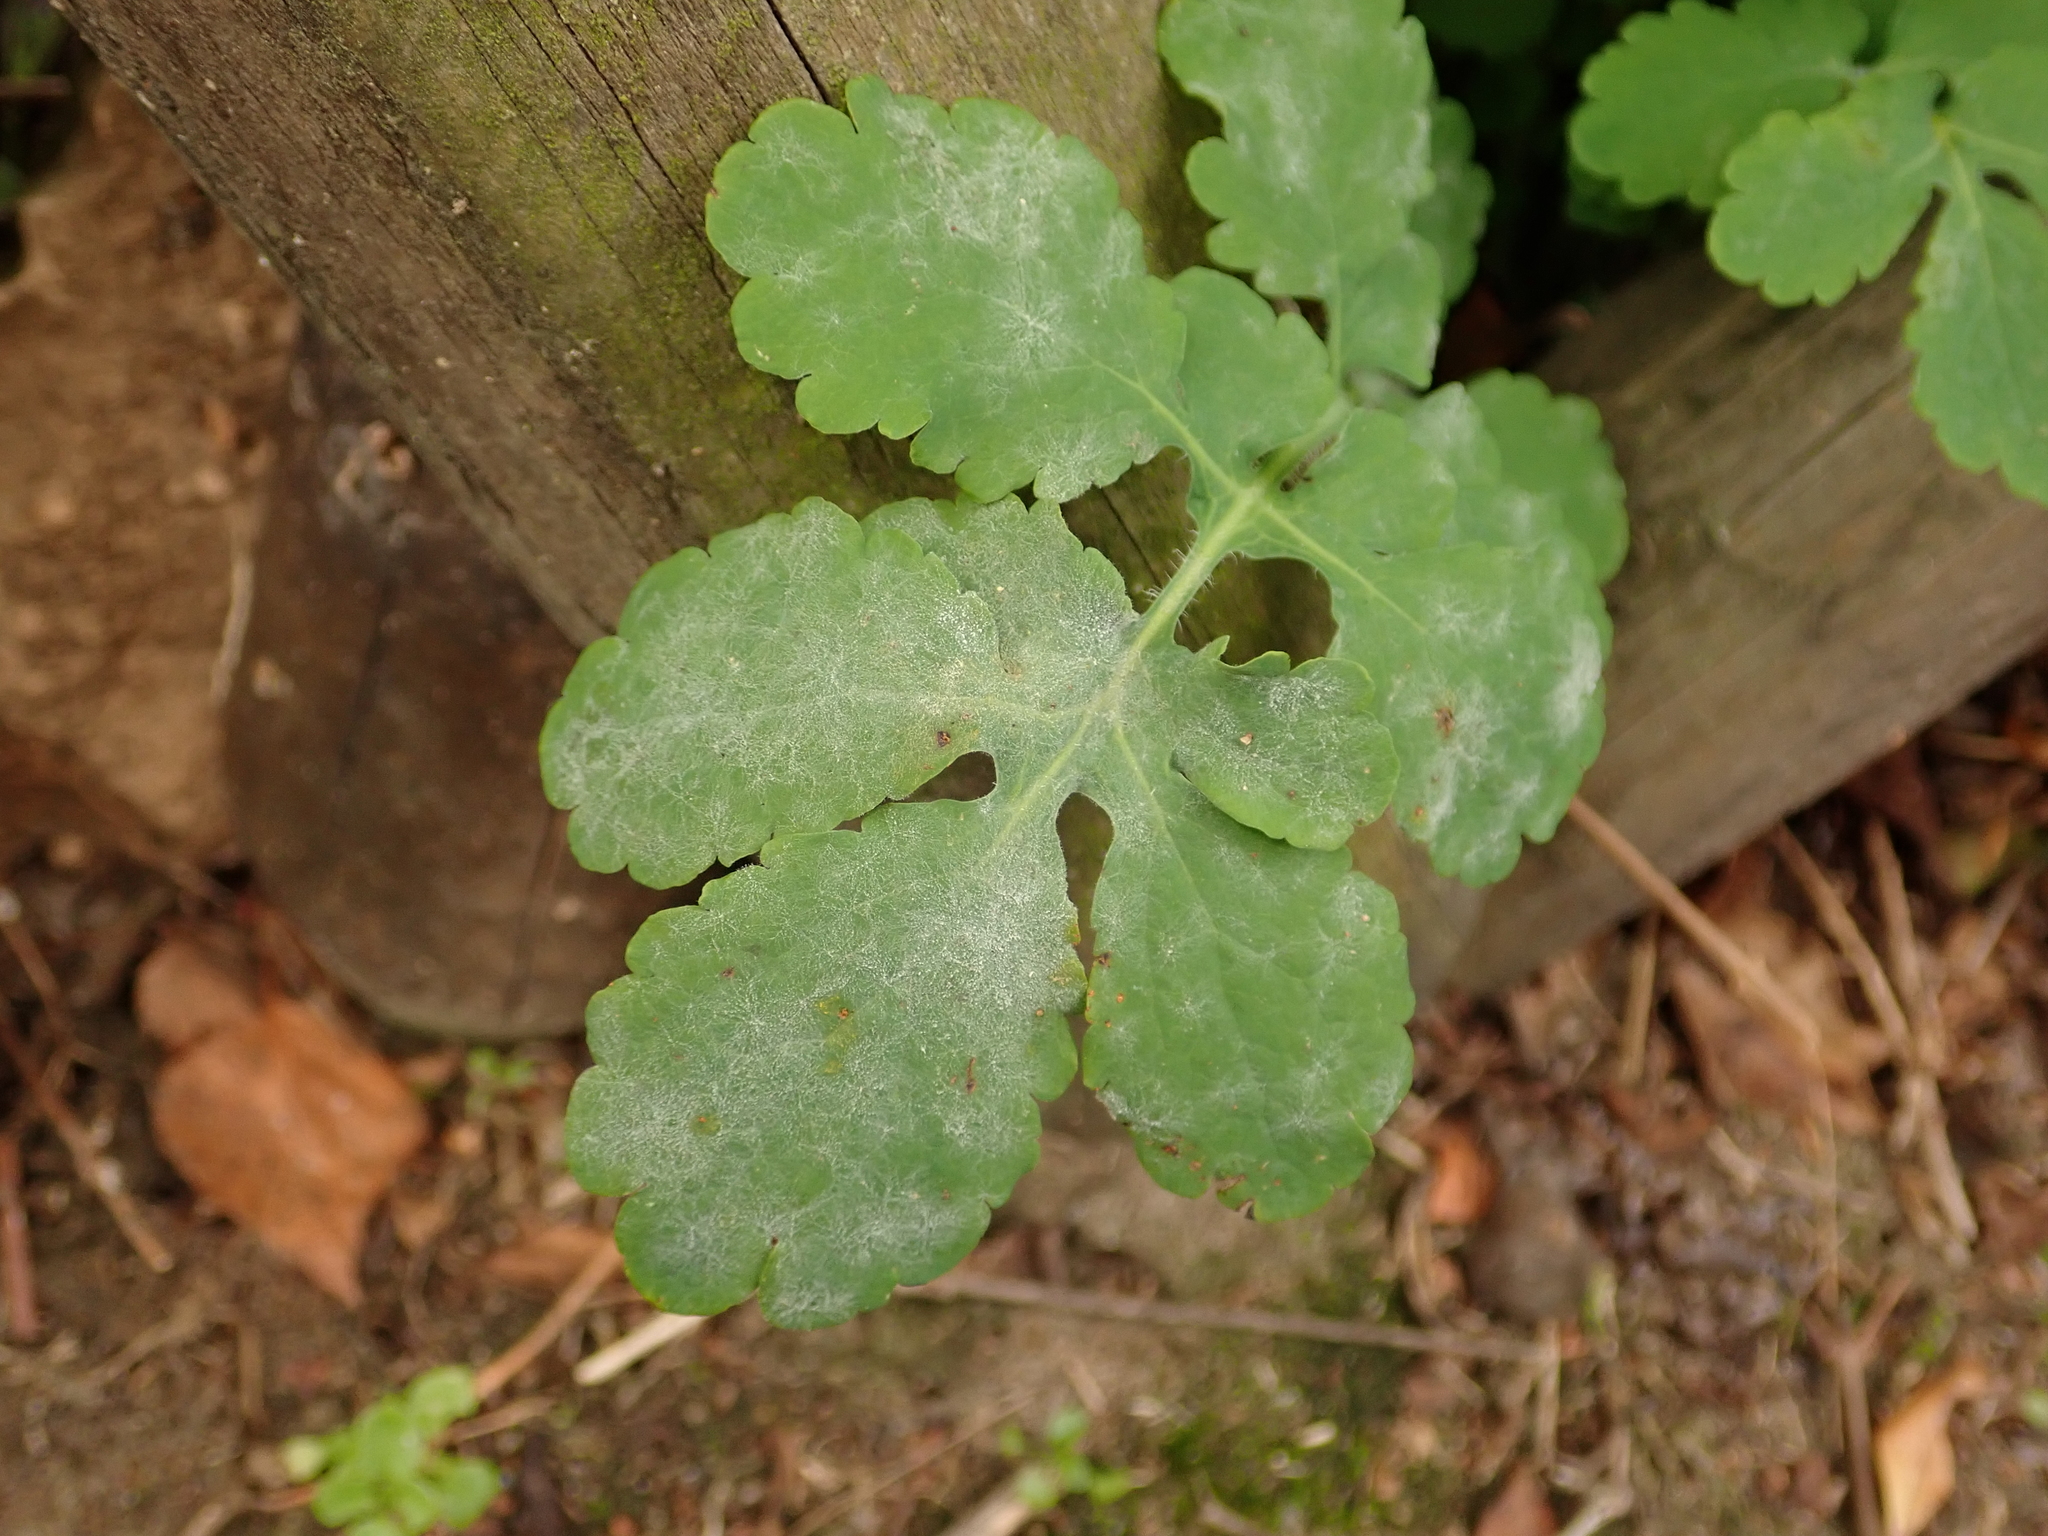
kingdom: Plantae
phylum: Tracheophyta
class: Magnoliopsida
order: Ranunculales
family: Papaveraceae
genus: Chelidonium
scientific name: Chelidonium majus
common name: Greater celandine
